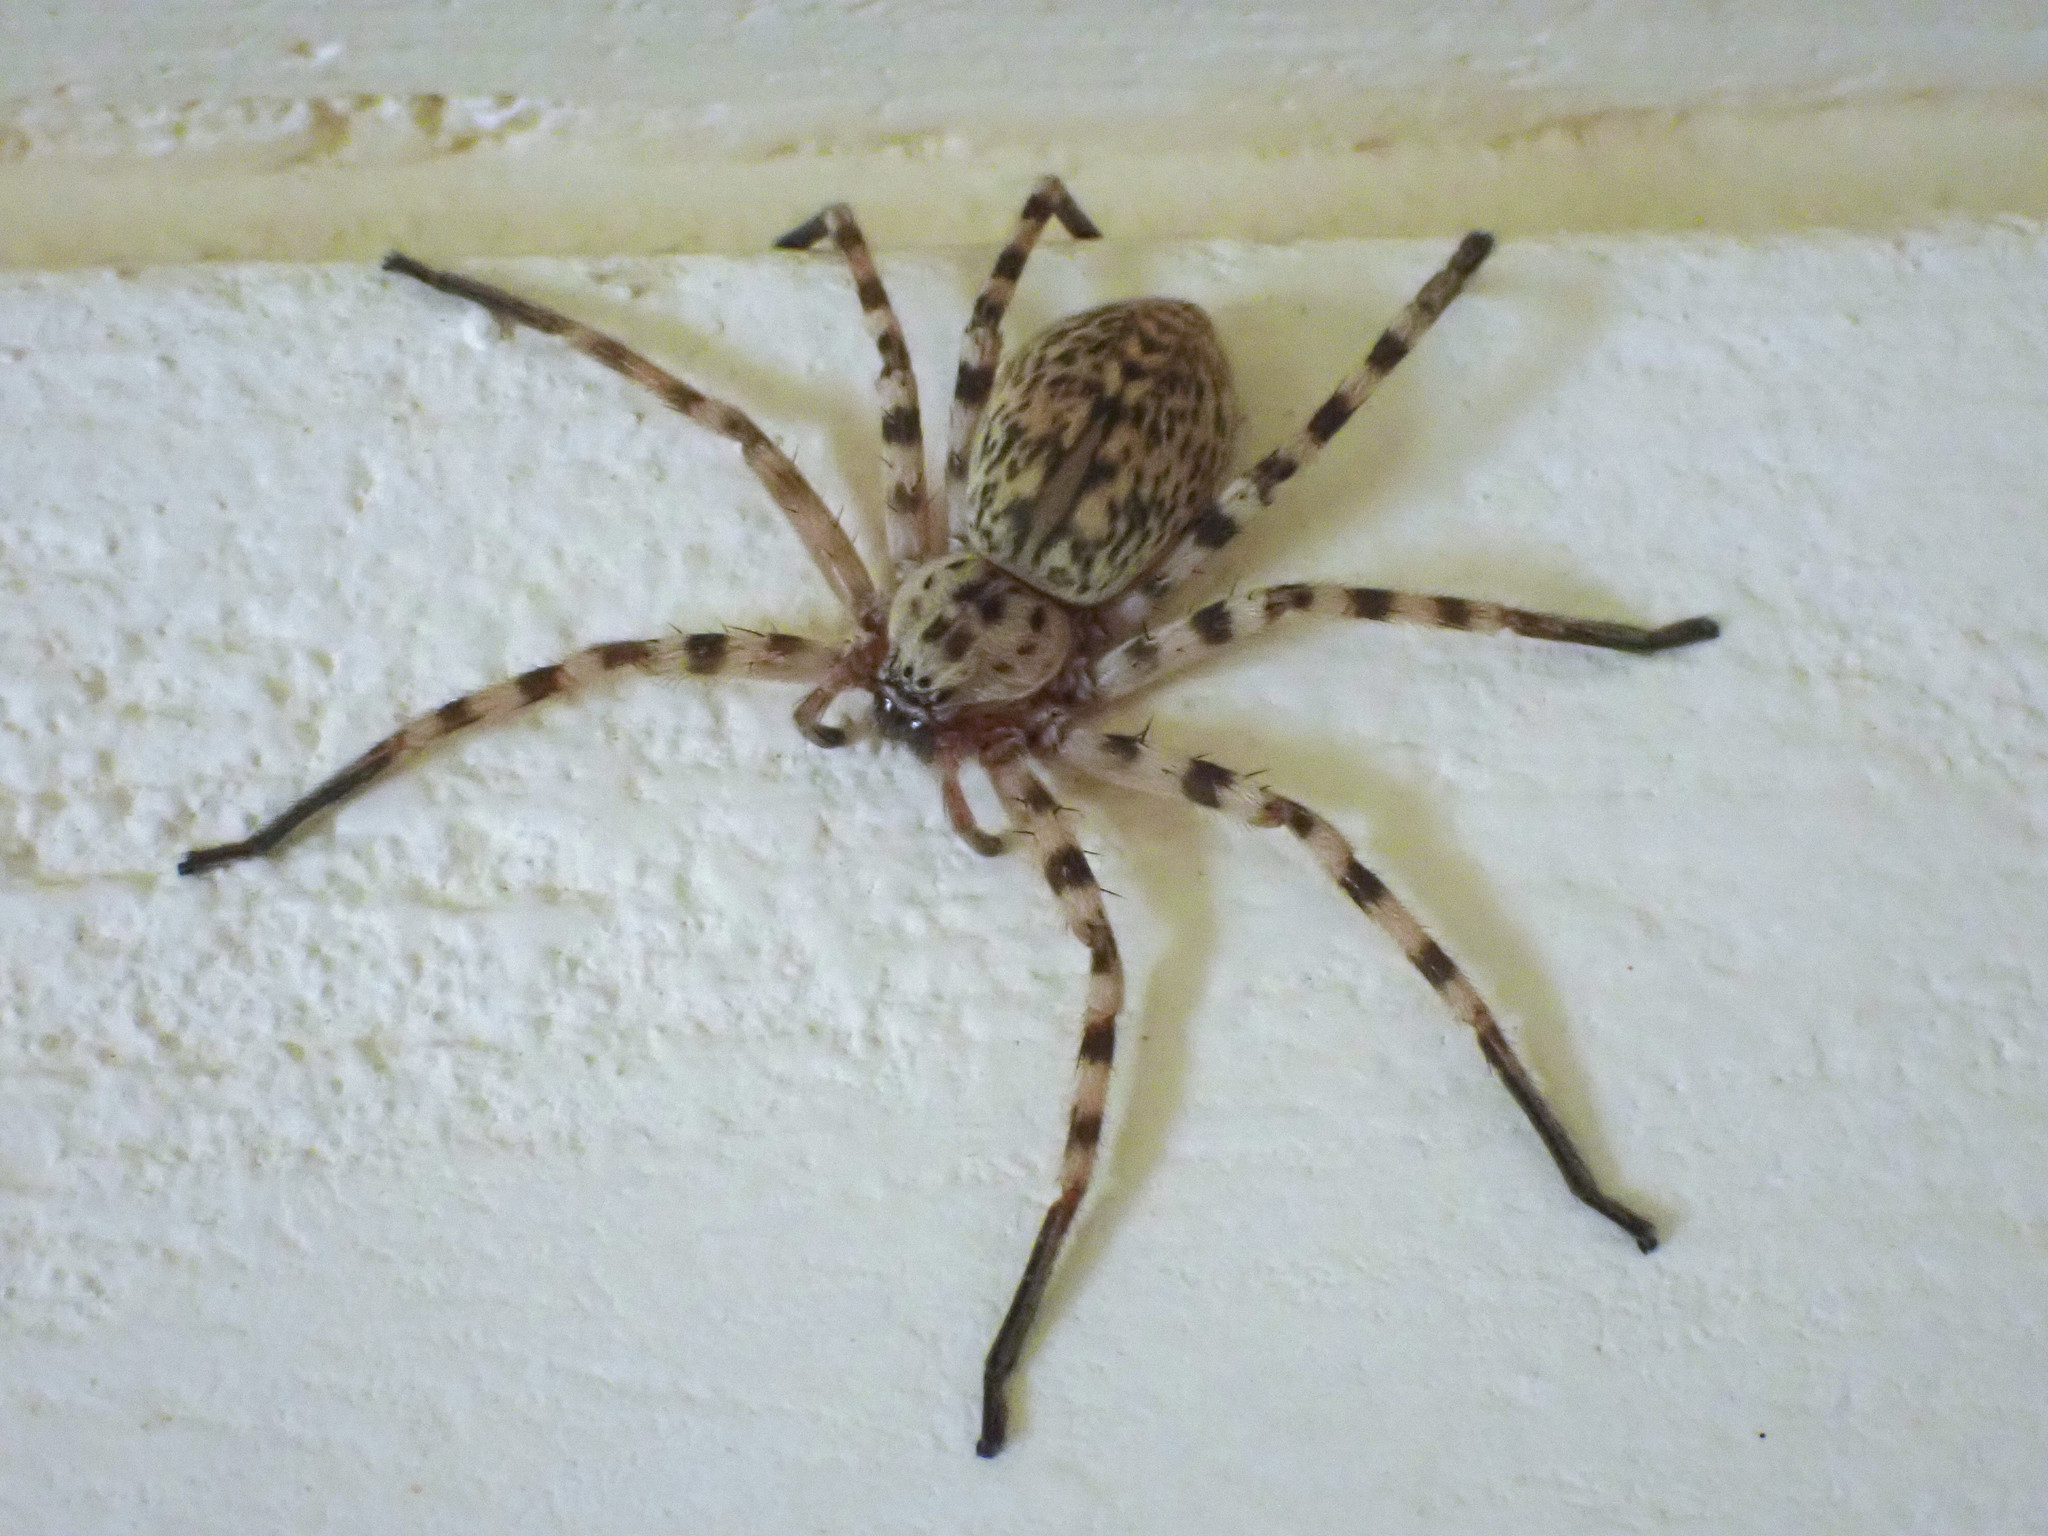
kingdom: Animalia
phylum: Arthropoda
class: Arachnida
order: Araneae
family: Sparassidae
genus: Eusparassus
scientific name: Eusparassus walckenaeri
